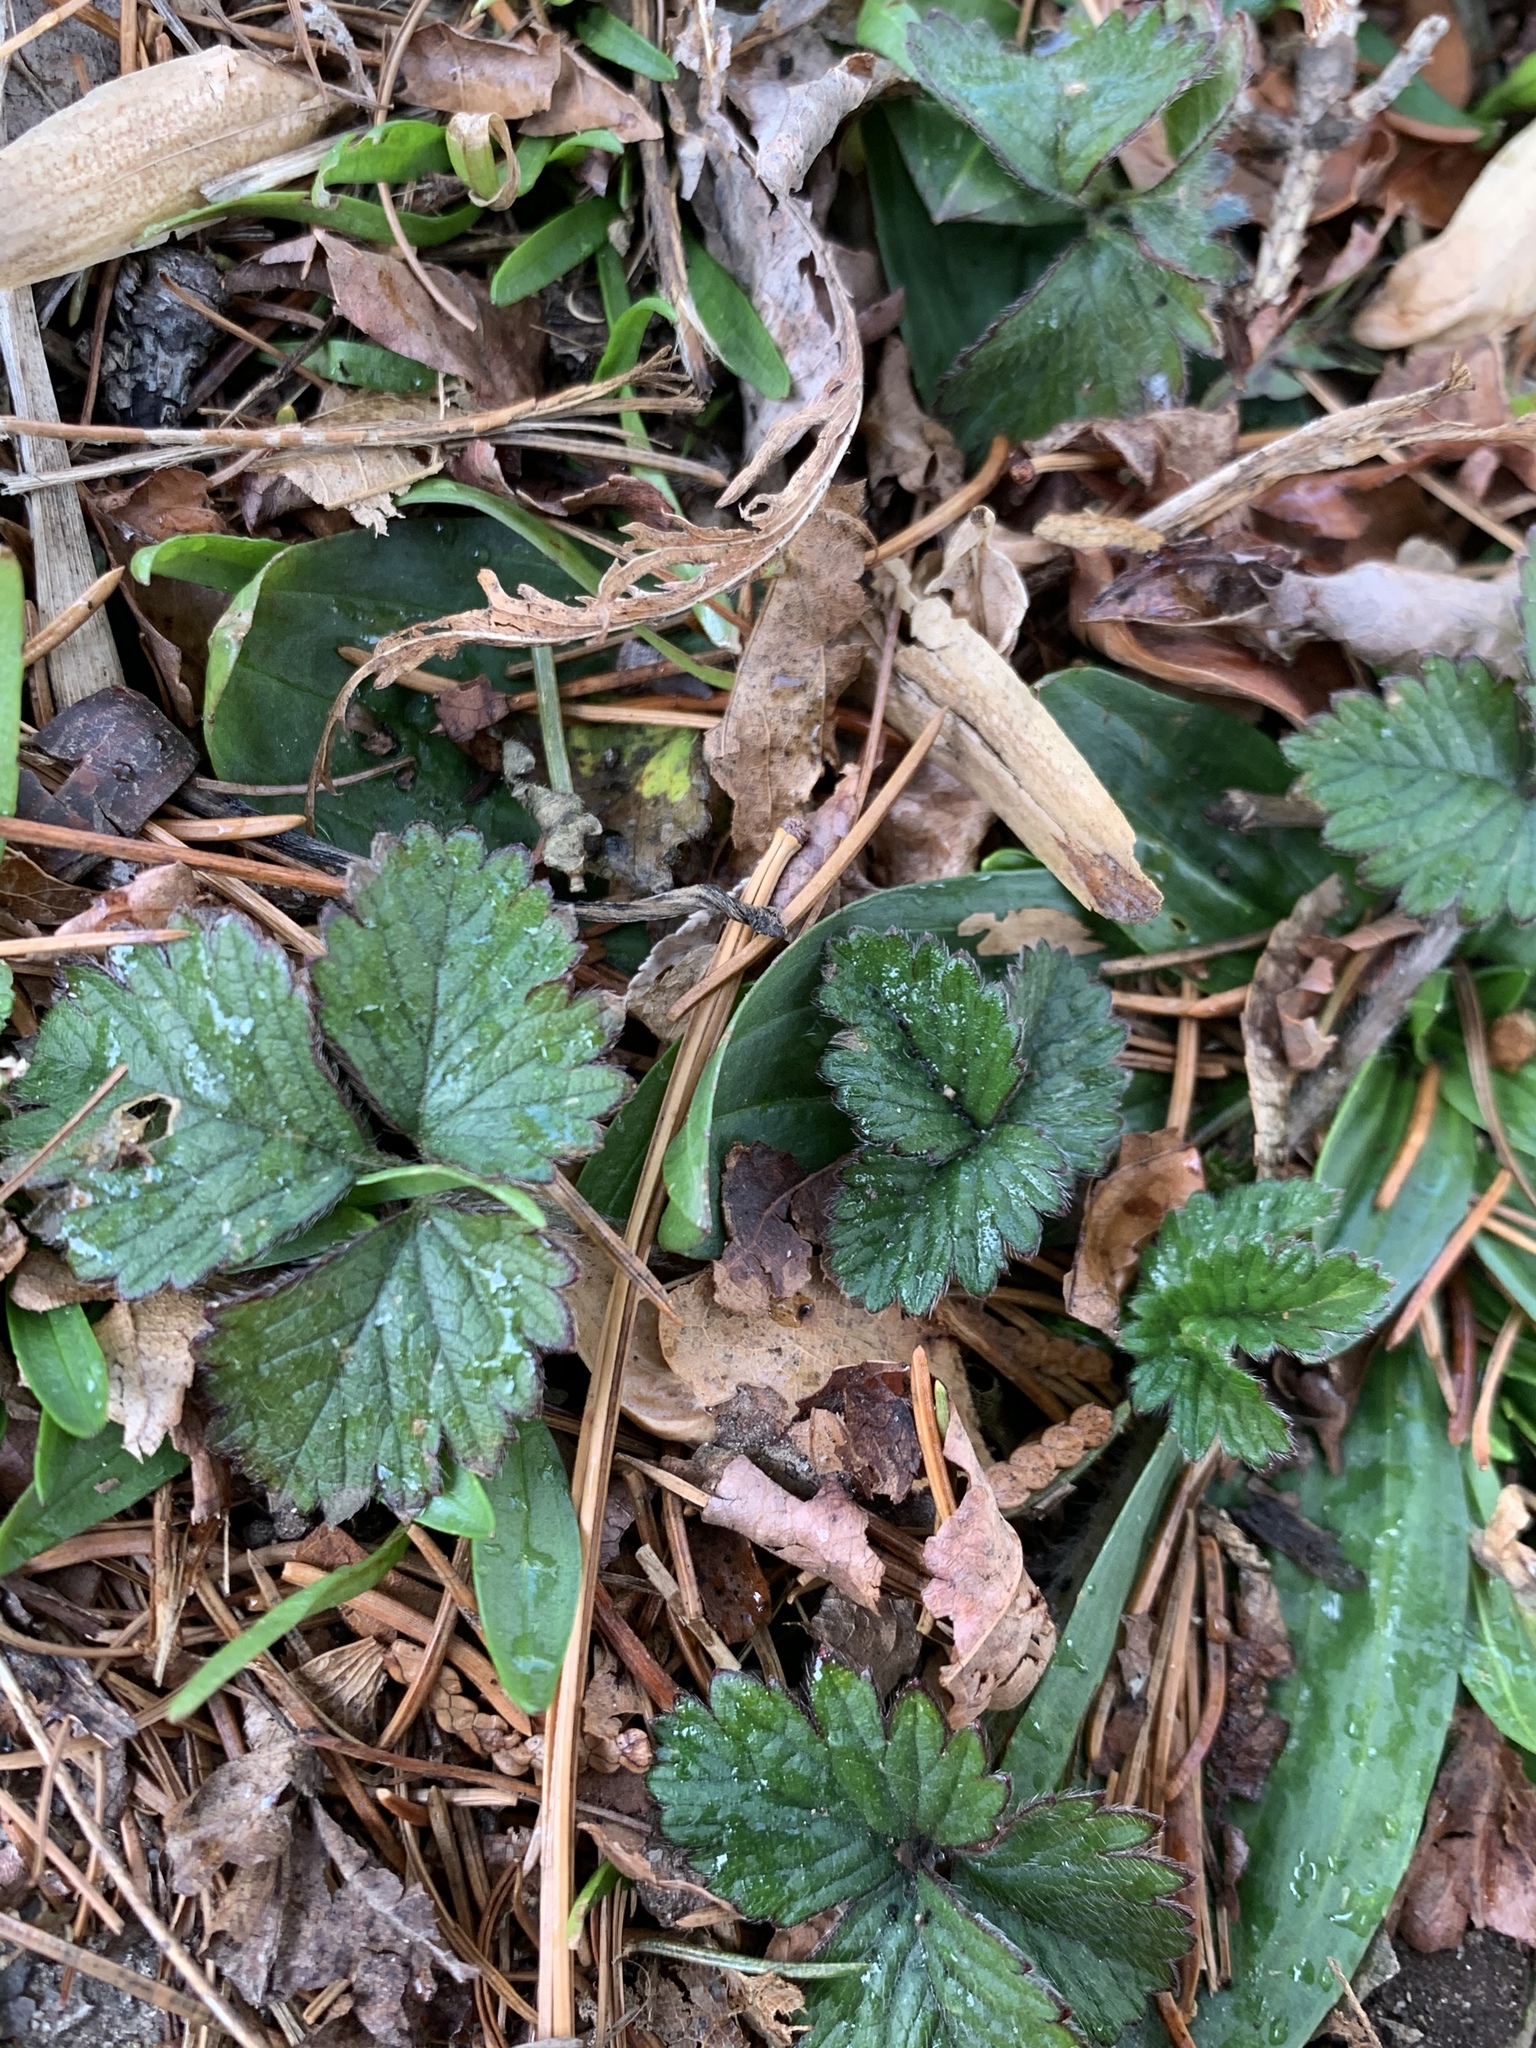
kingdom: Plantae
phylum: Tracheophyta
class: Magnoliopsida
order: Rosales
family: Rosaceae
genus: Potentilla
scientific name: Potentilla indica
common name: Yellow-flowered strawberry
